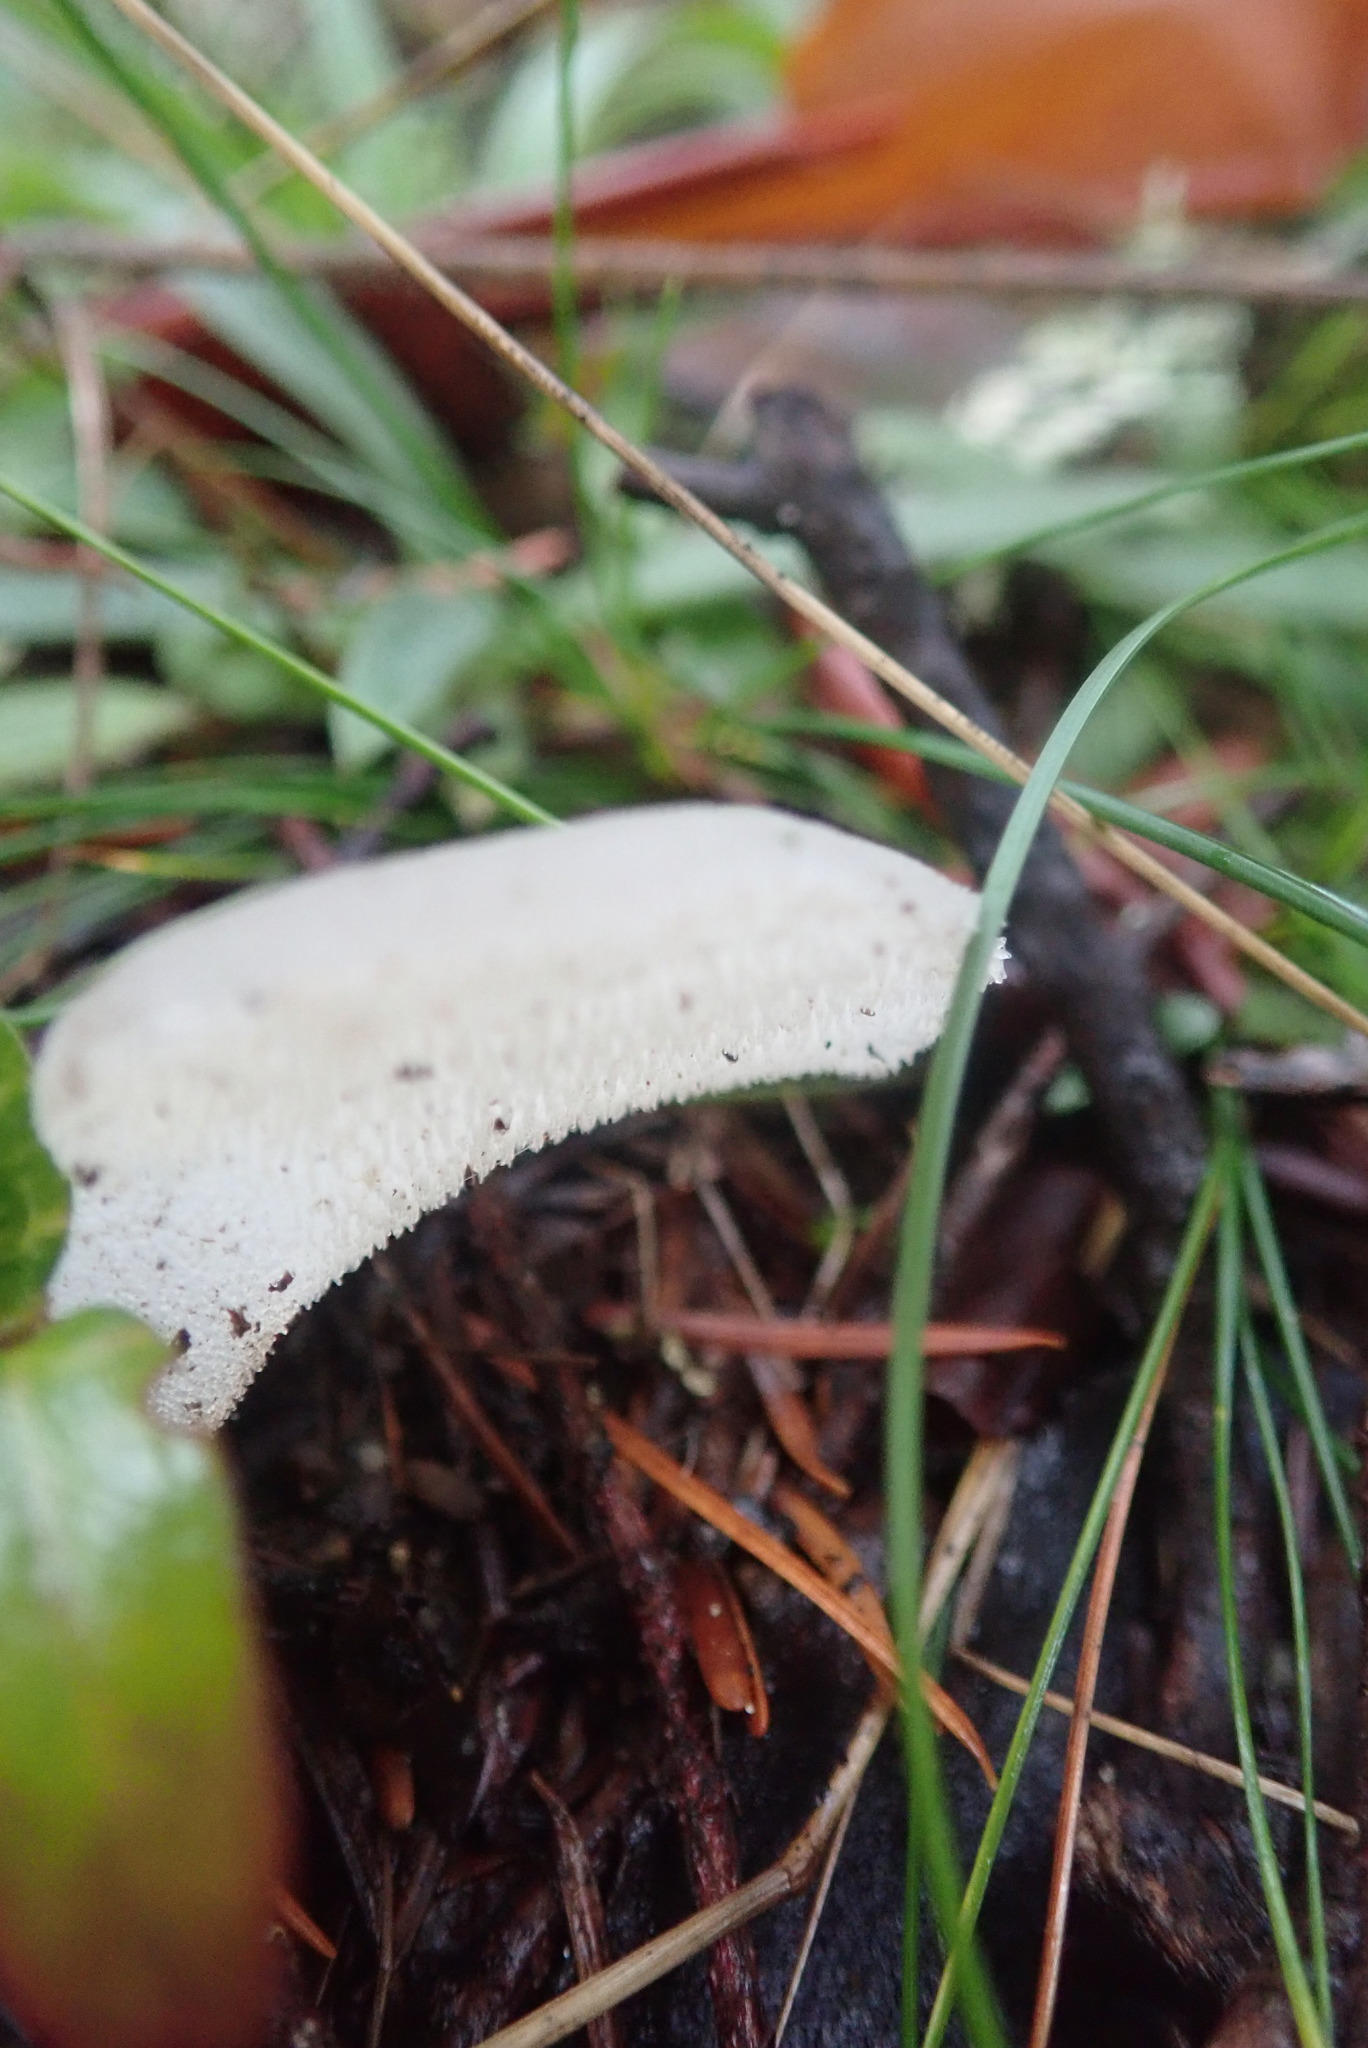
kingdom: Fungi
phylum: Basidiomycota
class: Agaricomycetes
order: Auriculariales
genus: Pseudohydnum
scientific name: Pseudohydnum gelatinosum
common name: Jelly tongue
